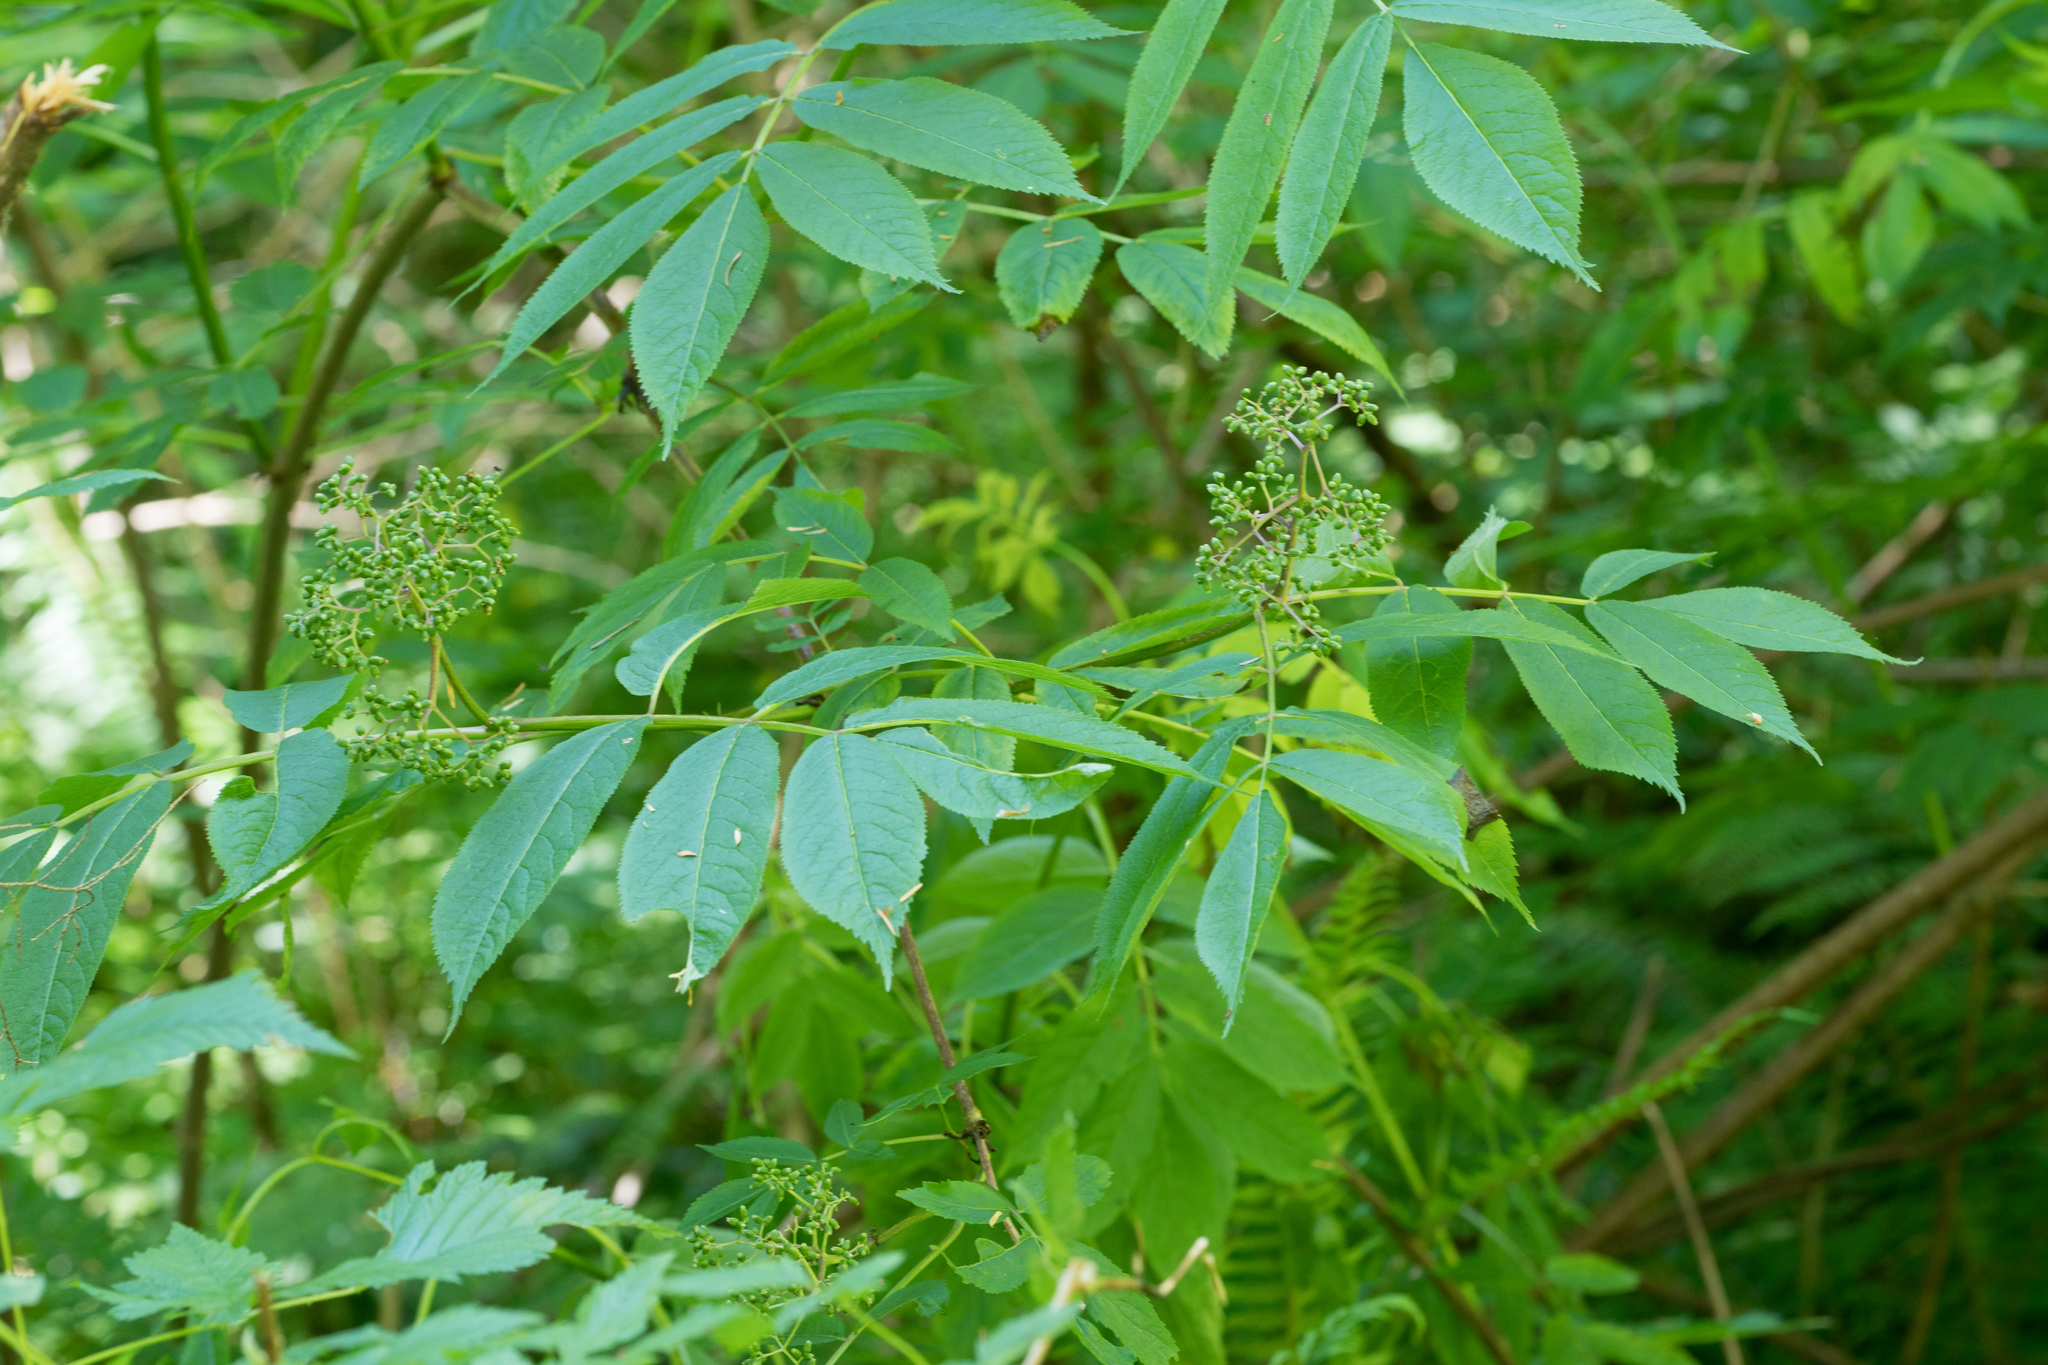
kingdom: Plantae
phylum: Tracheophyta
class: Magnoliopsida
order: Dipsacales
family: Viburnaceae
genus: Sambucus
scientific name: Sambucus racemosa
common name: Red-berried elder
